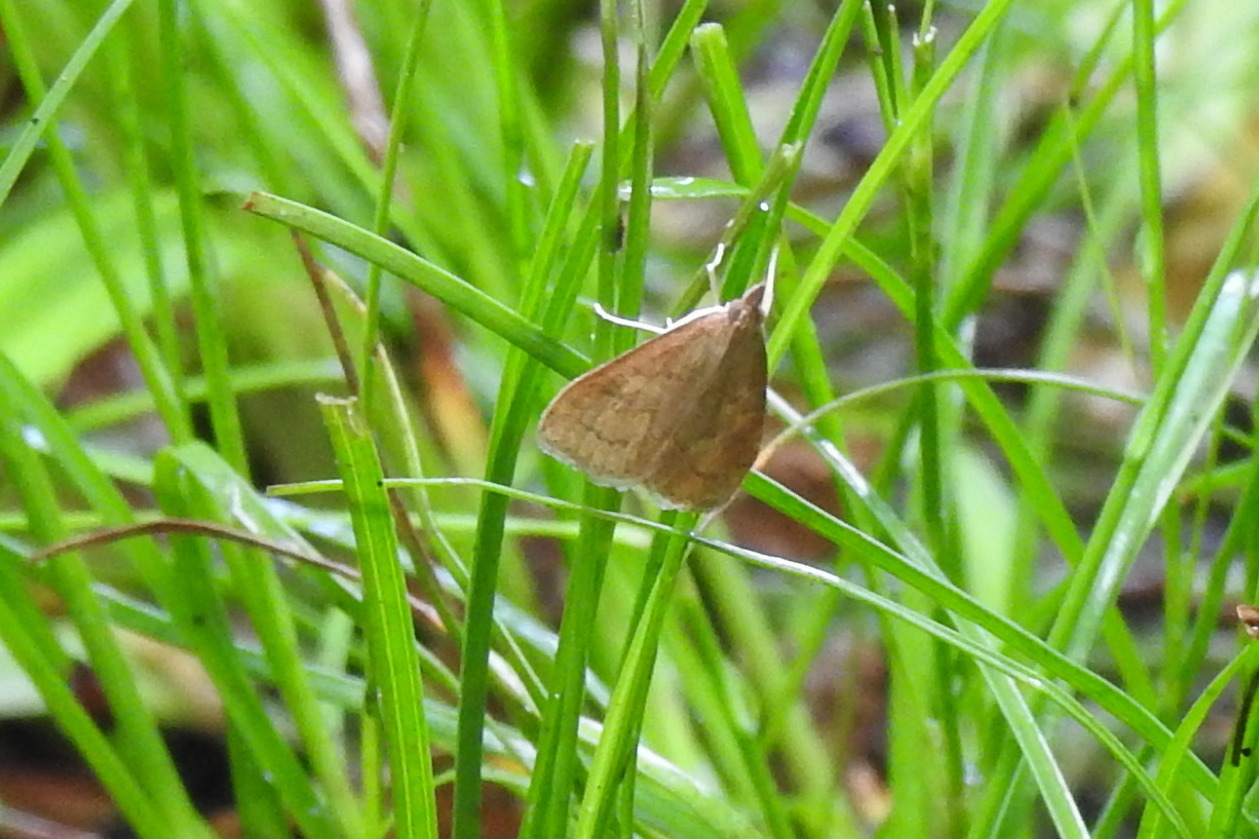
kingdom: Animalia
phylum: Arthropoda
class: Insecta
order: Lepidoptera
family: Crambidae
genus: Udea
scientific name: Udea rubigalis
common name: Celery leaftier moth
